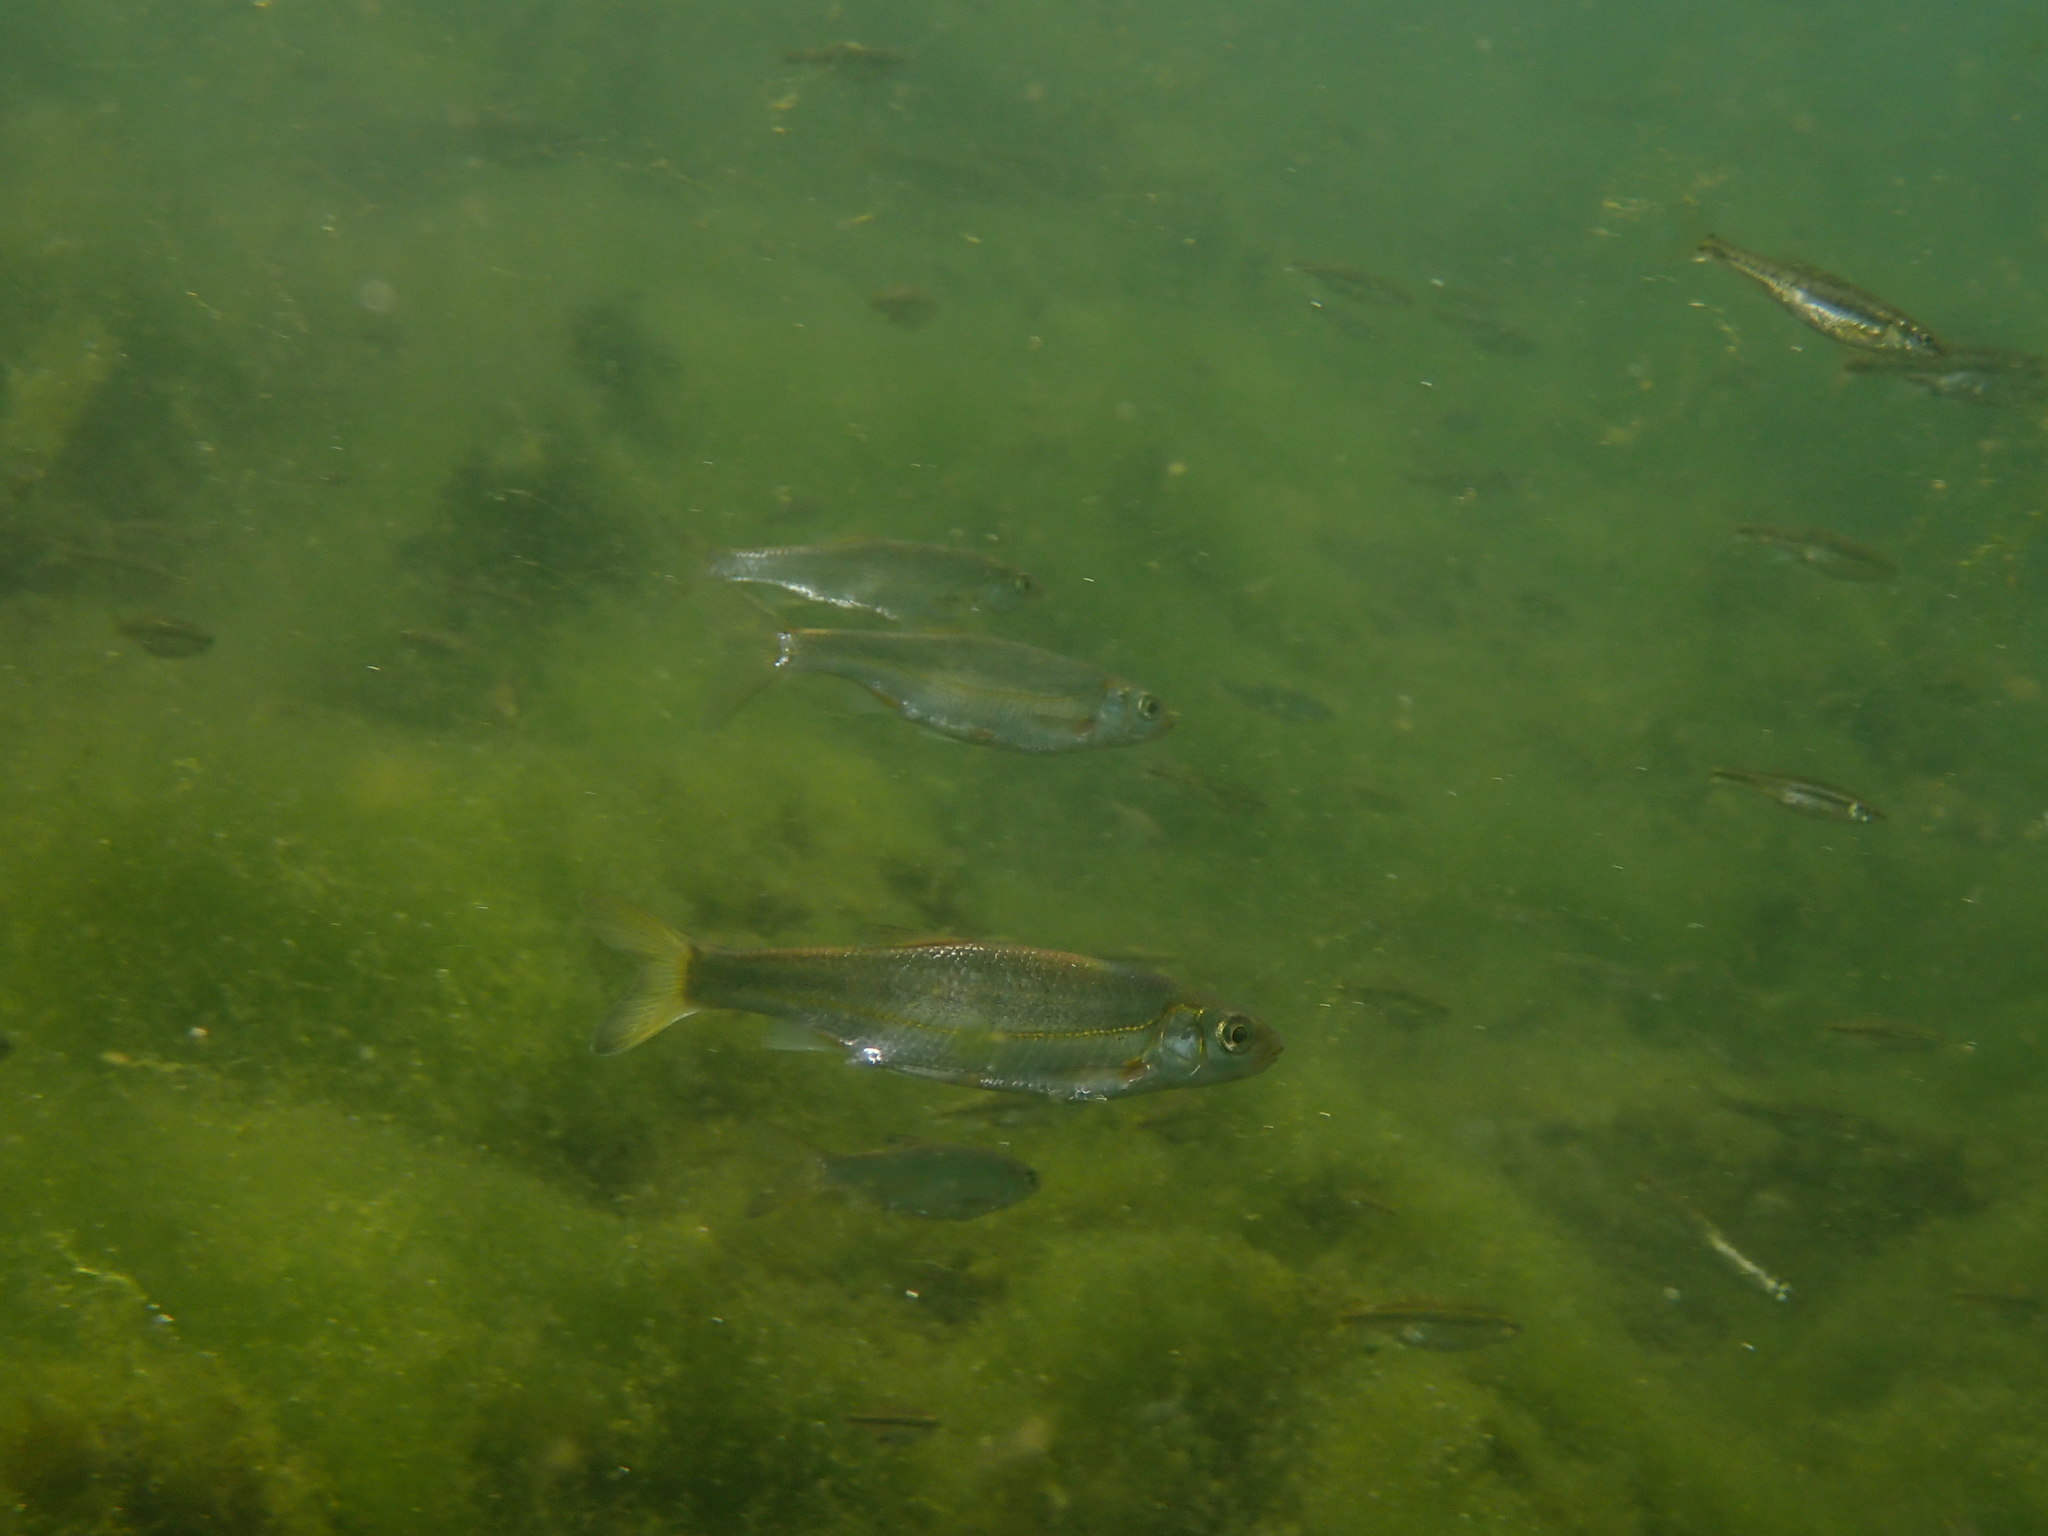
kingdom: Animalia
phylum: Chordata
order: Cypriniformes
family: Cyprinidae
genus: Telestes
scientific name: Telestes souffia
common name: Souffia
